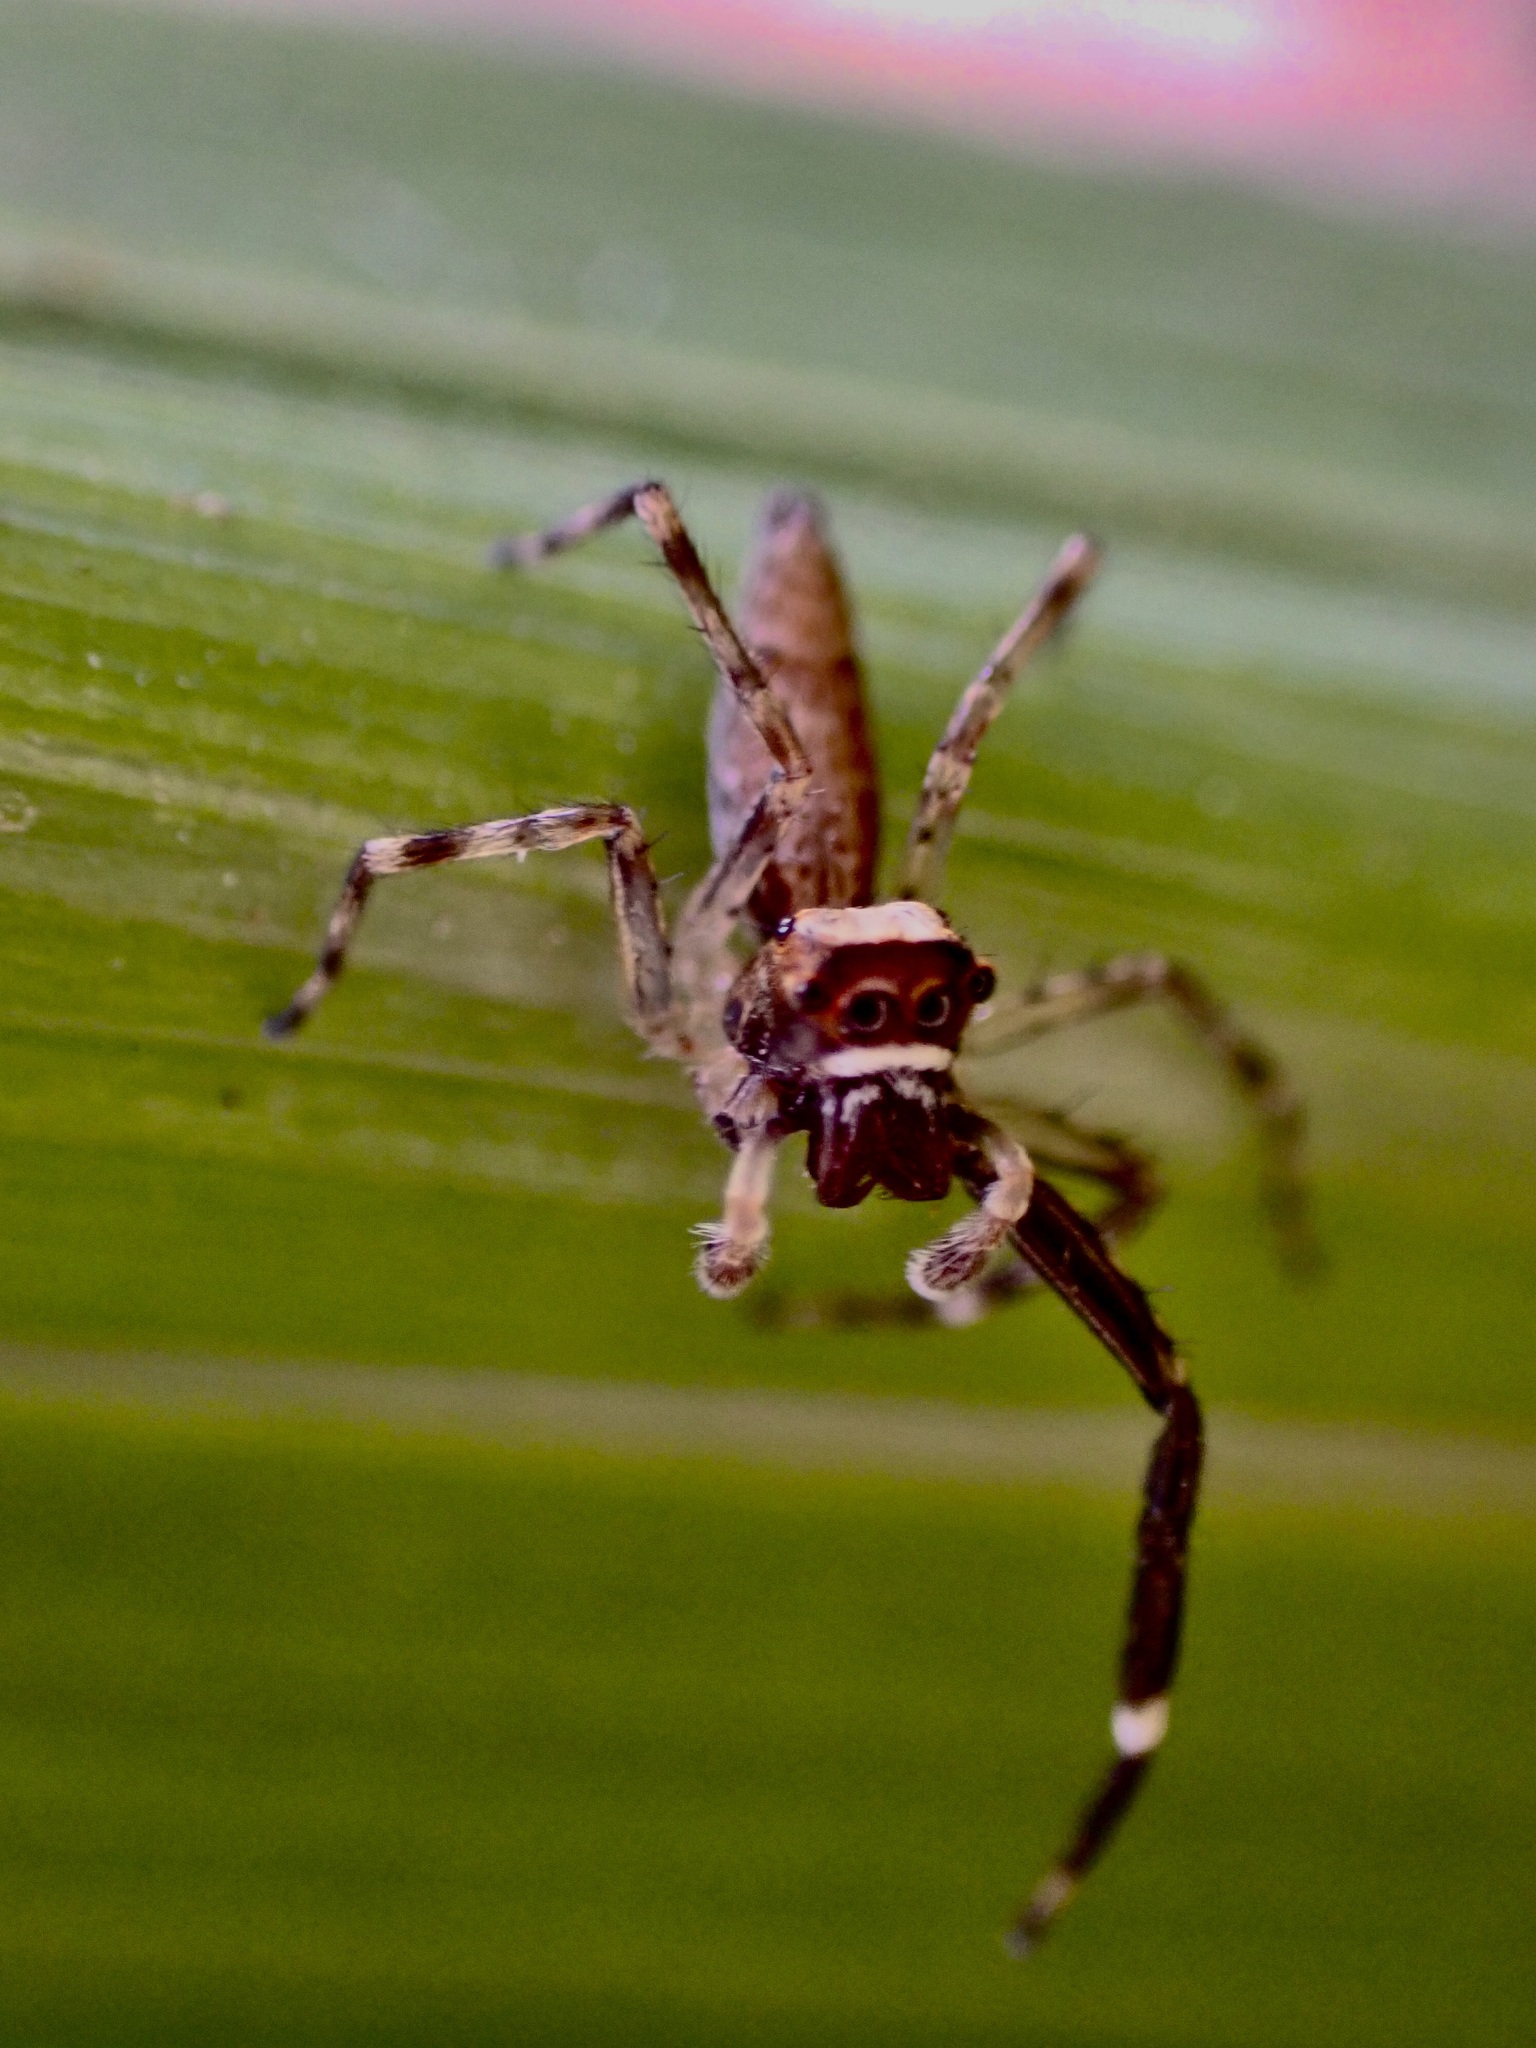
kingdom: Animalia
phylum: Arthropoda
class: Arachnida
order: Araneae
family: Salticidae
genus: Helpis
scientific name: Helpis minitabunda
